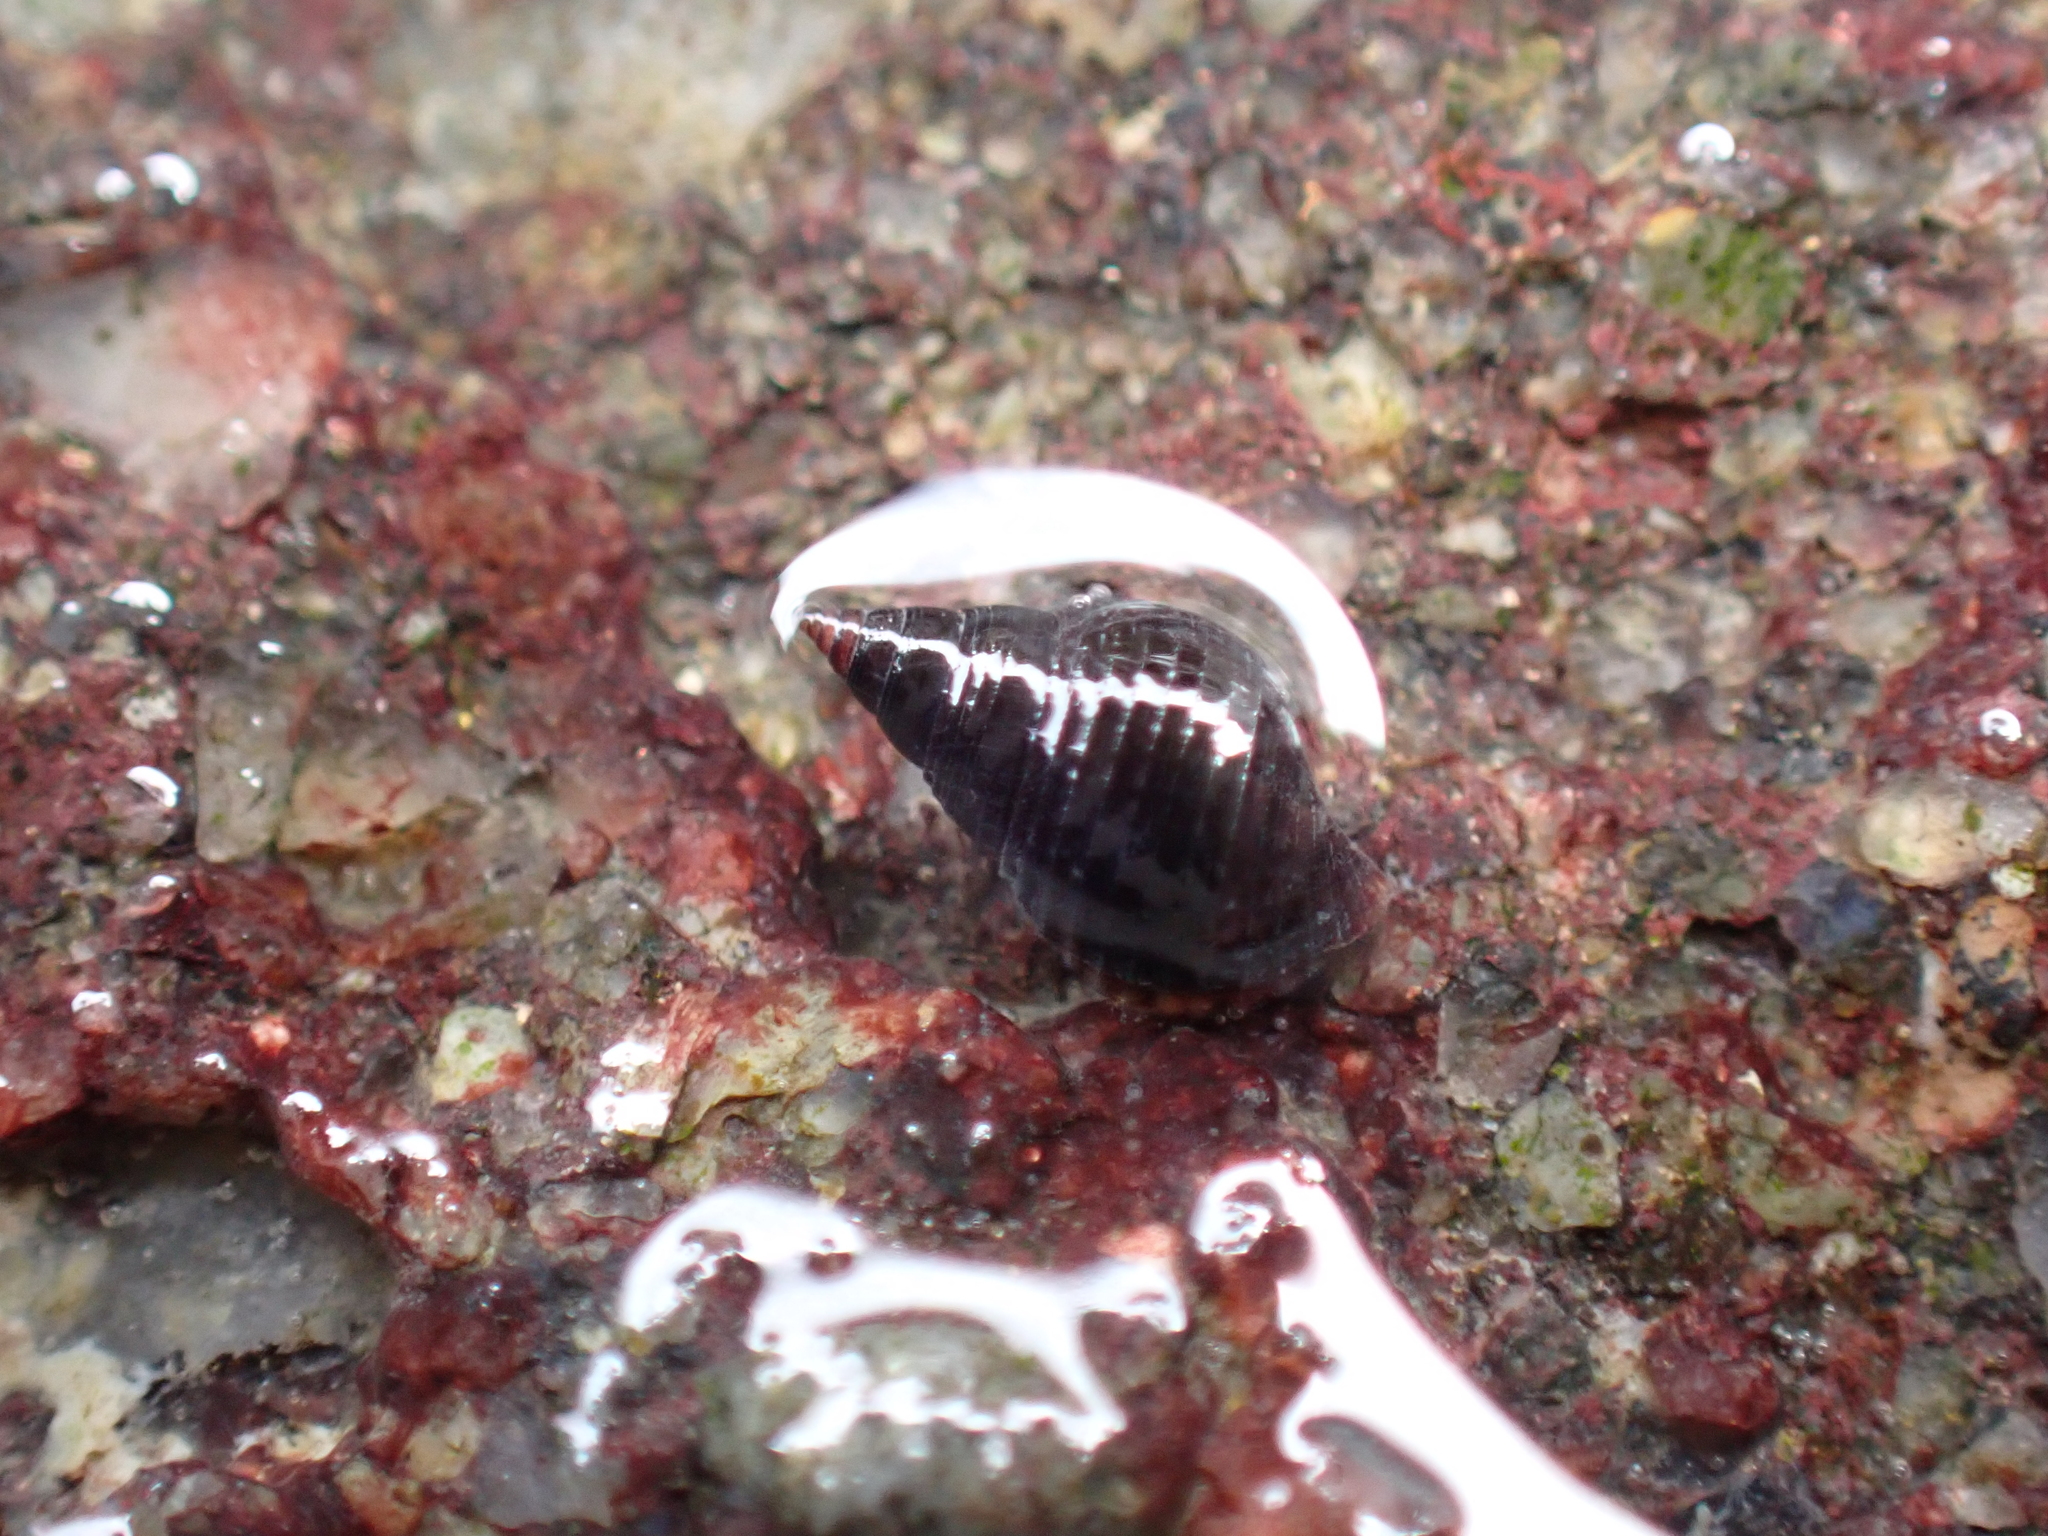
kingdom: Animalia
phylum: Mollusca
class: Gastropoda
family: Planaxidae
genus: Planaxis
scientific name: Planaxis sulcatus
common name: Furrowed planaxis
